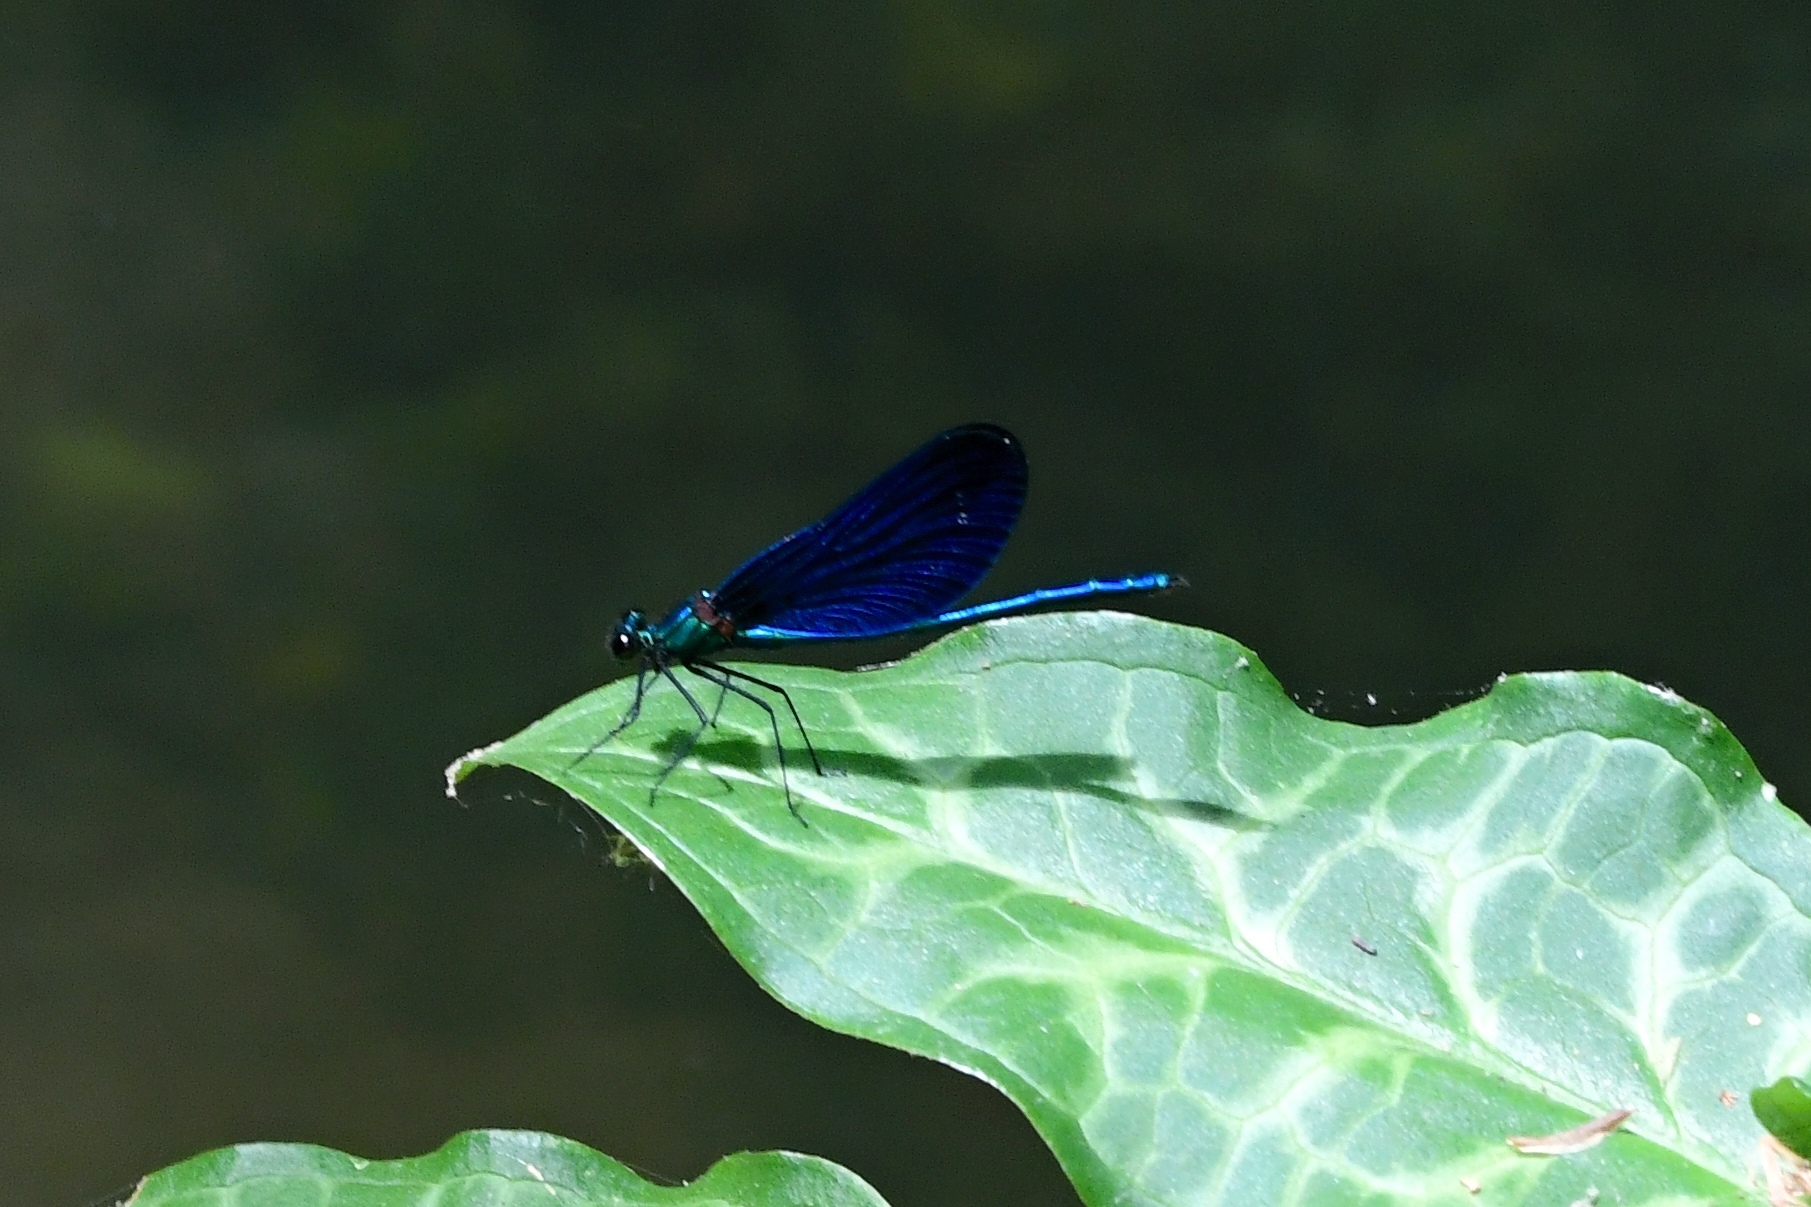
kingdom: Animalia
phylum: Arthropoda
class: Insecta
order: Odonata
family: Calopterygidae
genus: Calopteryx
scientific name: Calopteryx virgo
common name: Beautiful demoiselle
